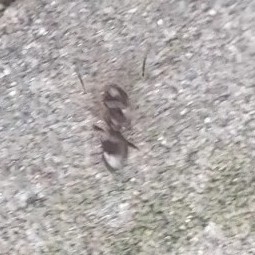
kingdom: Animalia
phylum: Arthropoda
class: Insecta
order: Hymenoptera
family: Formicidae
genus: Brachymyrmex
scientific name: Brachymyrmex patagonicus
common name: Dark rover ant
